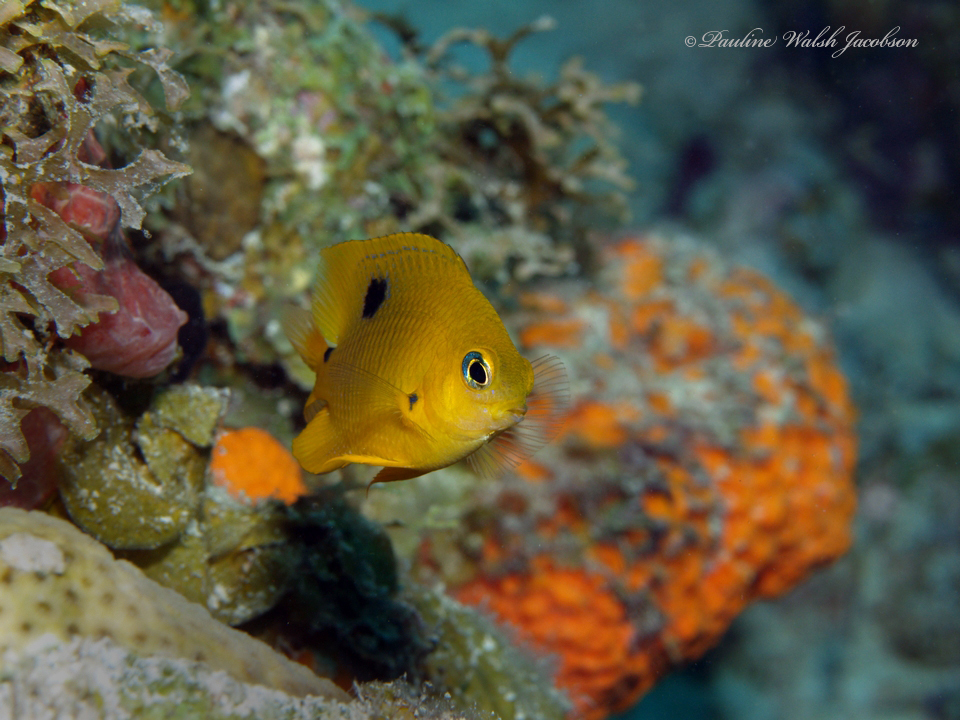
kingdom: Animalia
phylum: Chordata
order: Perciformes
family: Pomacentridae
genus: Stegastes
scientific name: Stegastes planifrons
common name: Threespot damselfish
